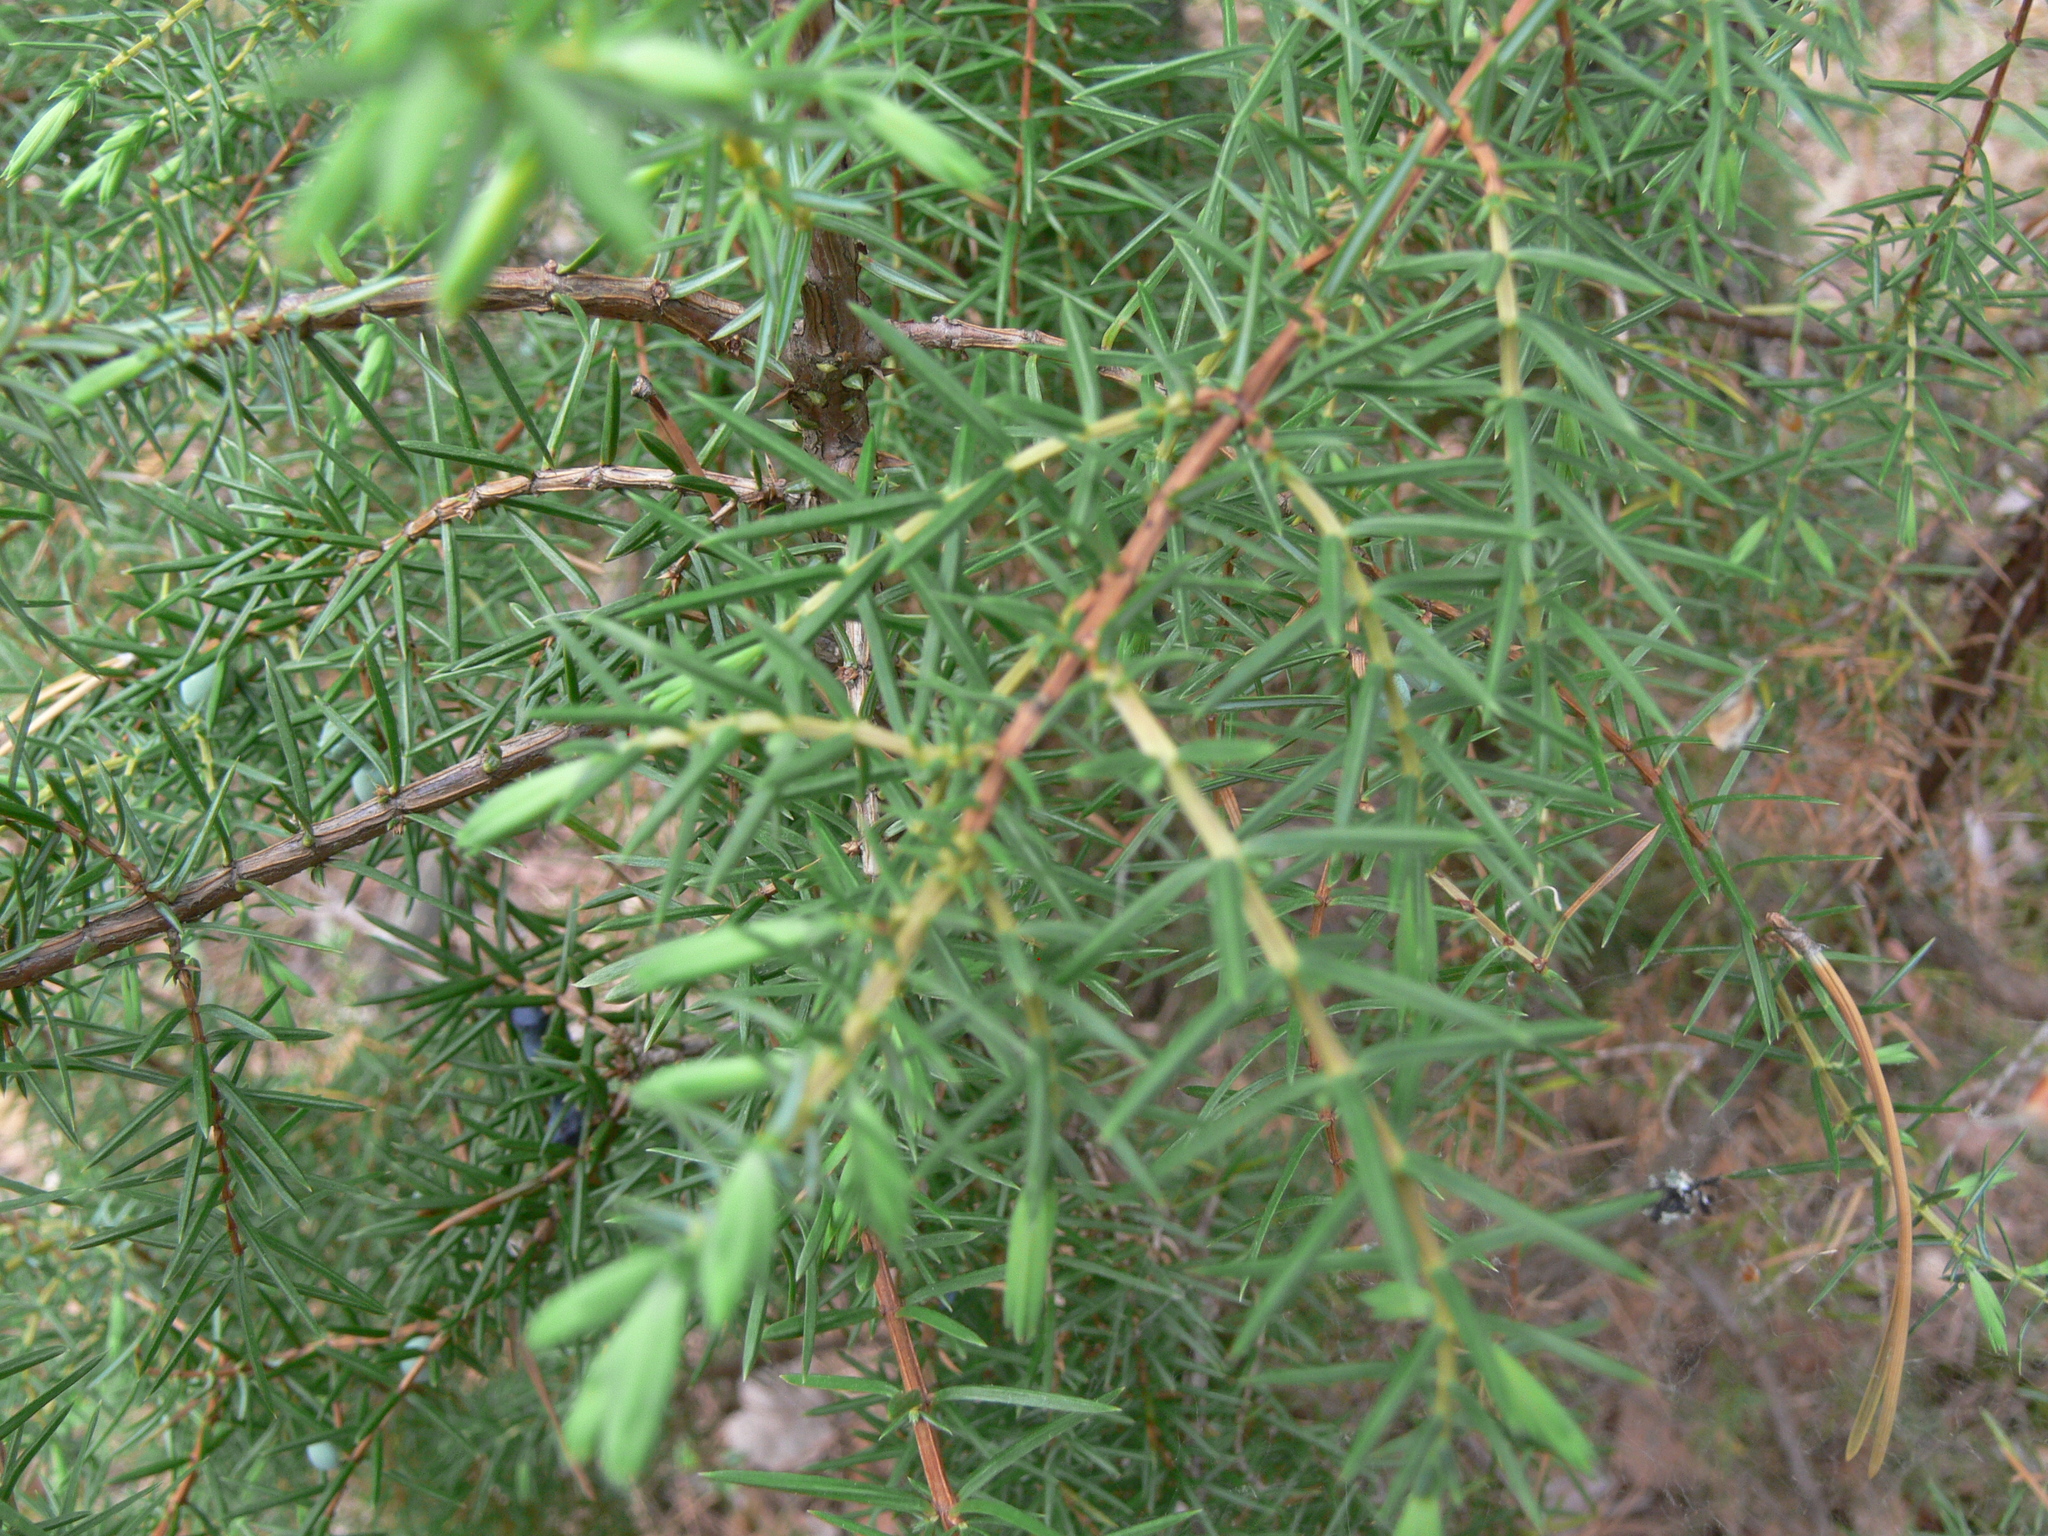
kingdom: Plantae
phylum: Tracheophyta
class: Pinopsida
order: Pinales
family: Cupressaceae
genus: Juniperus
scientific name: Juniperus communis
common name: Common juniper
